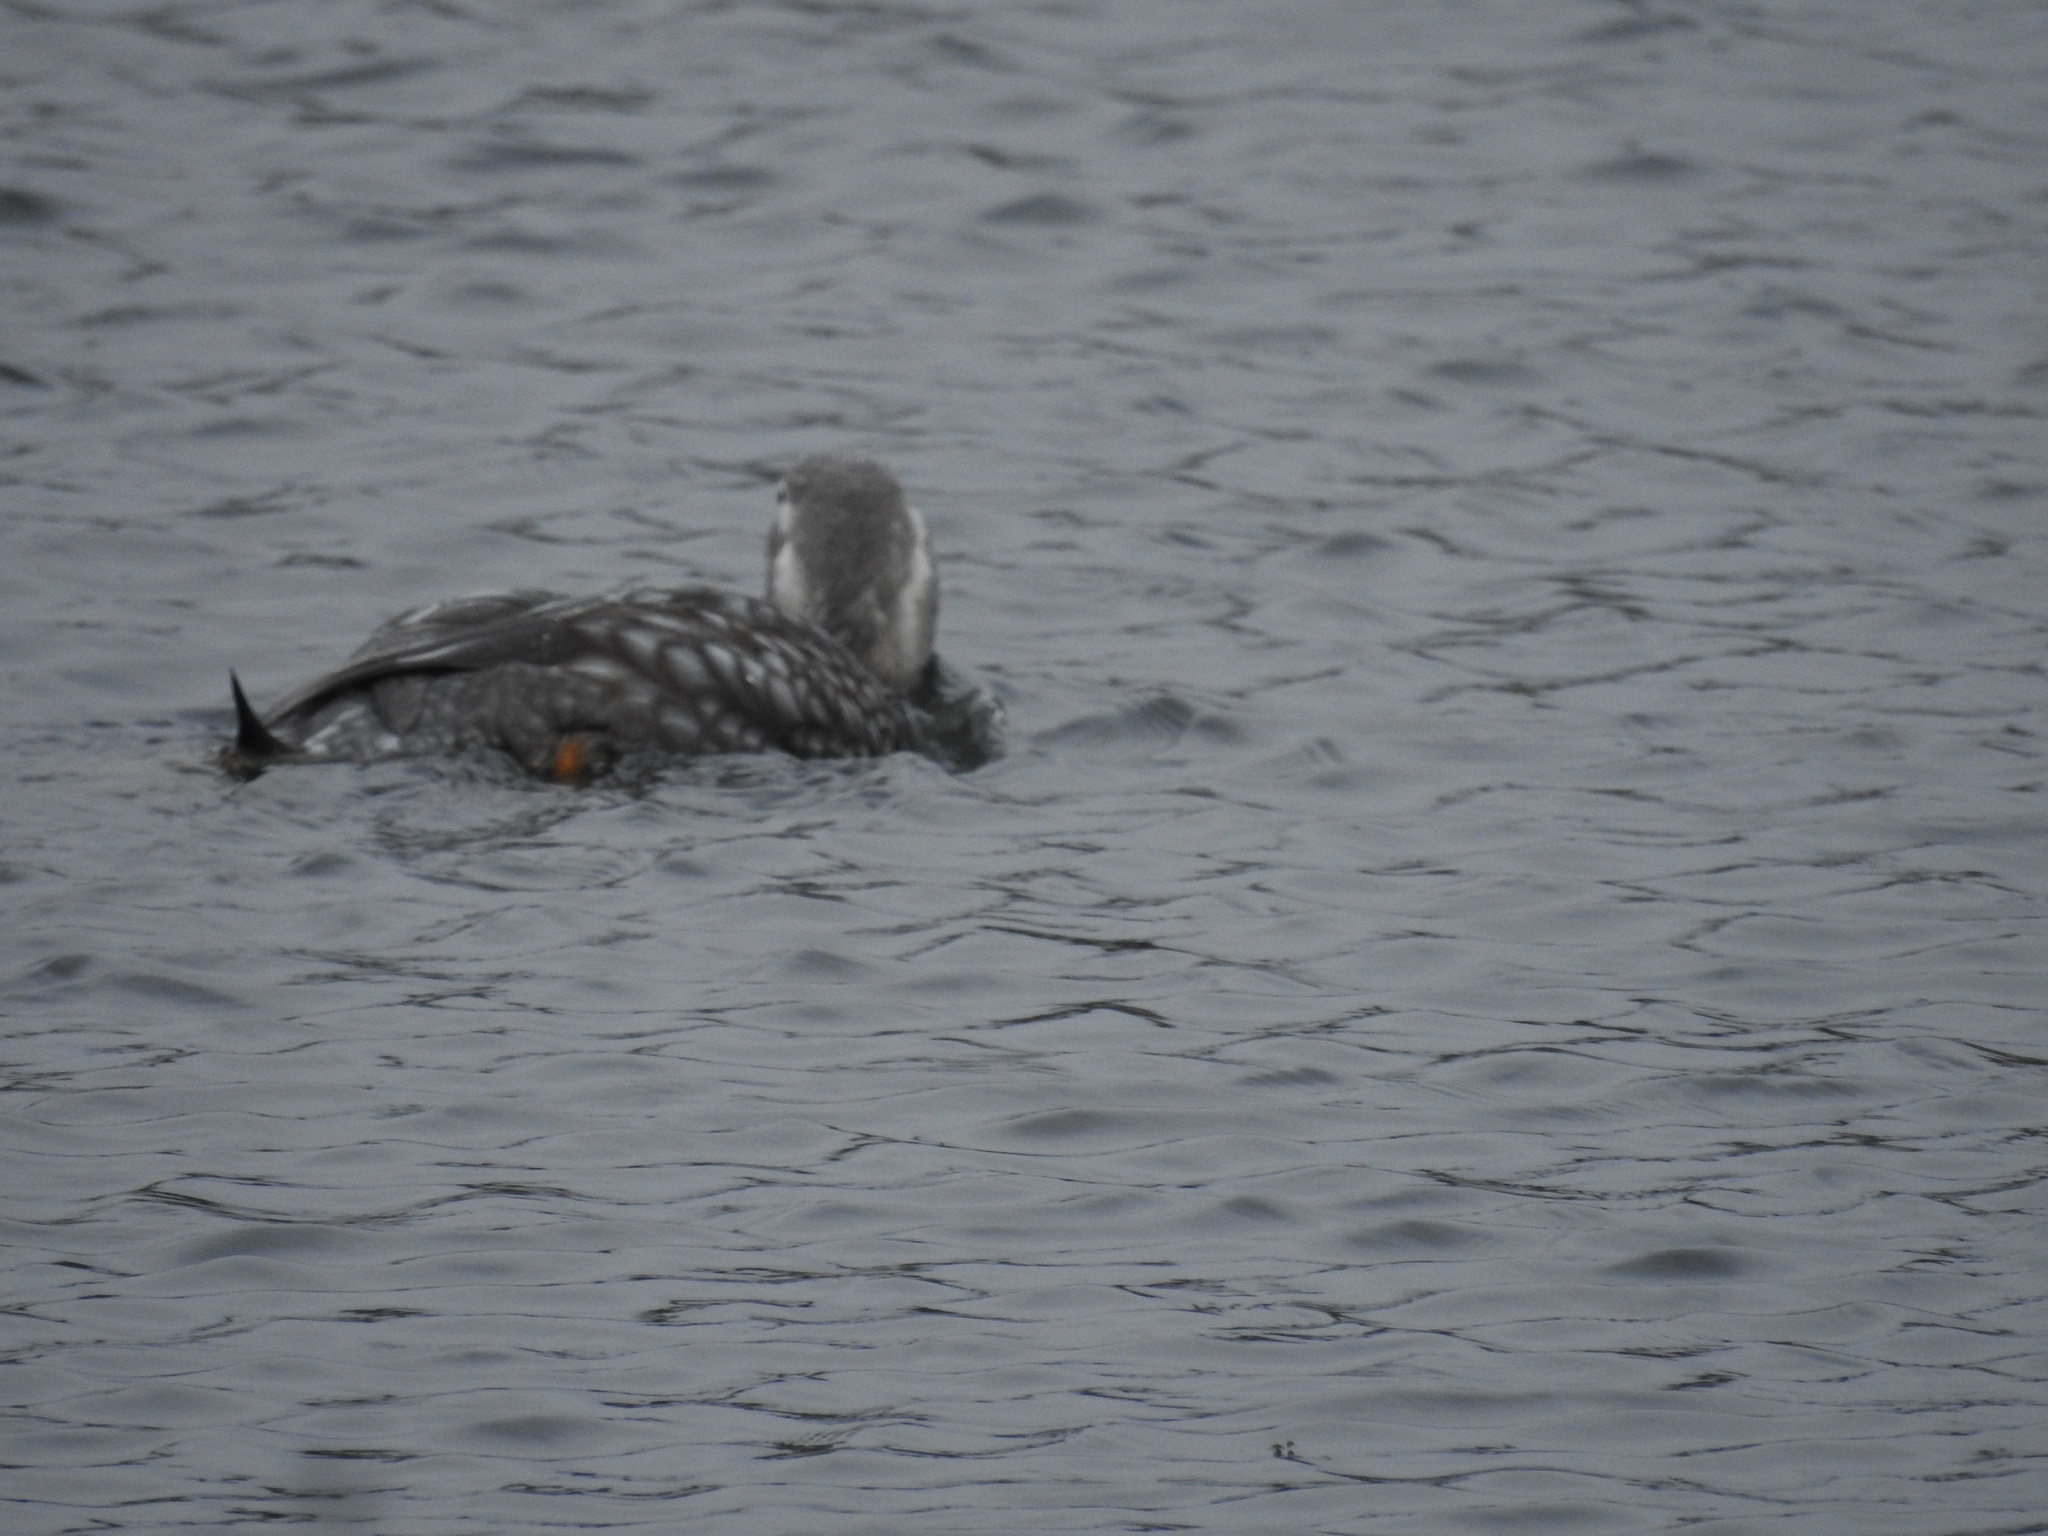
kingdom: Animalia
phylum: Chordata
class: Aves
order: Anseriformes
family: Anatidae
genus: Tachyeres
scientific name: Tachyeres patachonicus
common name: Flying steamer duck
